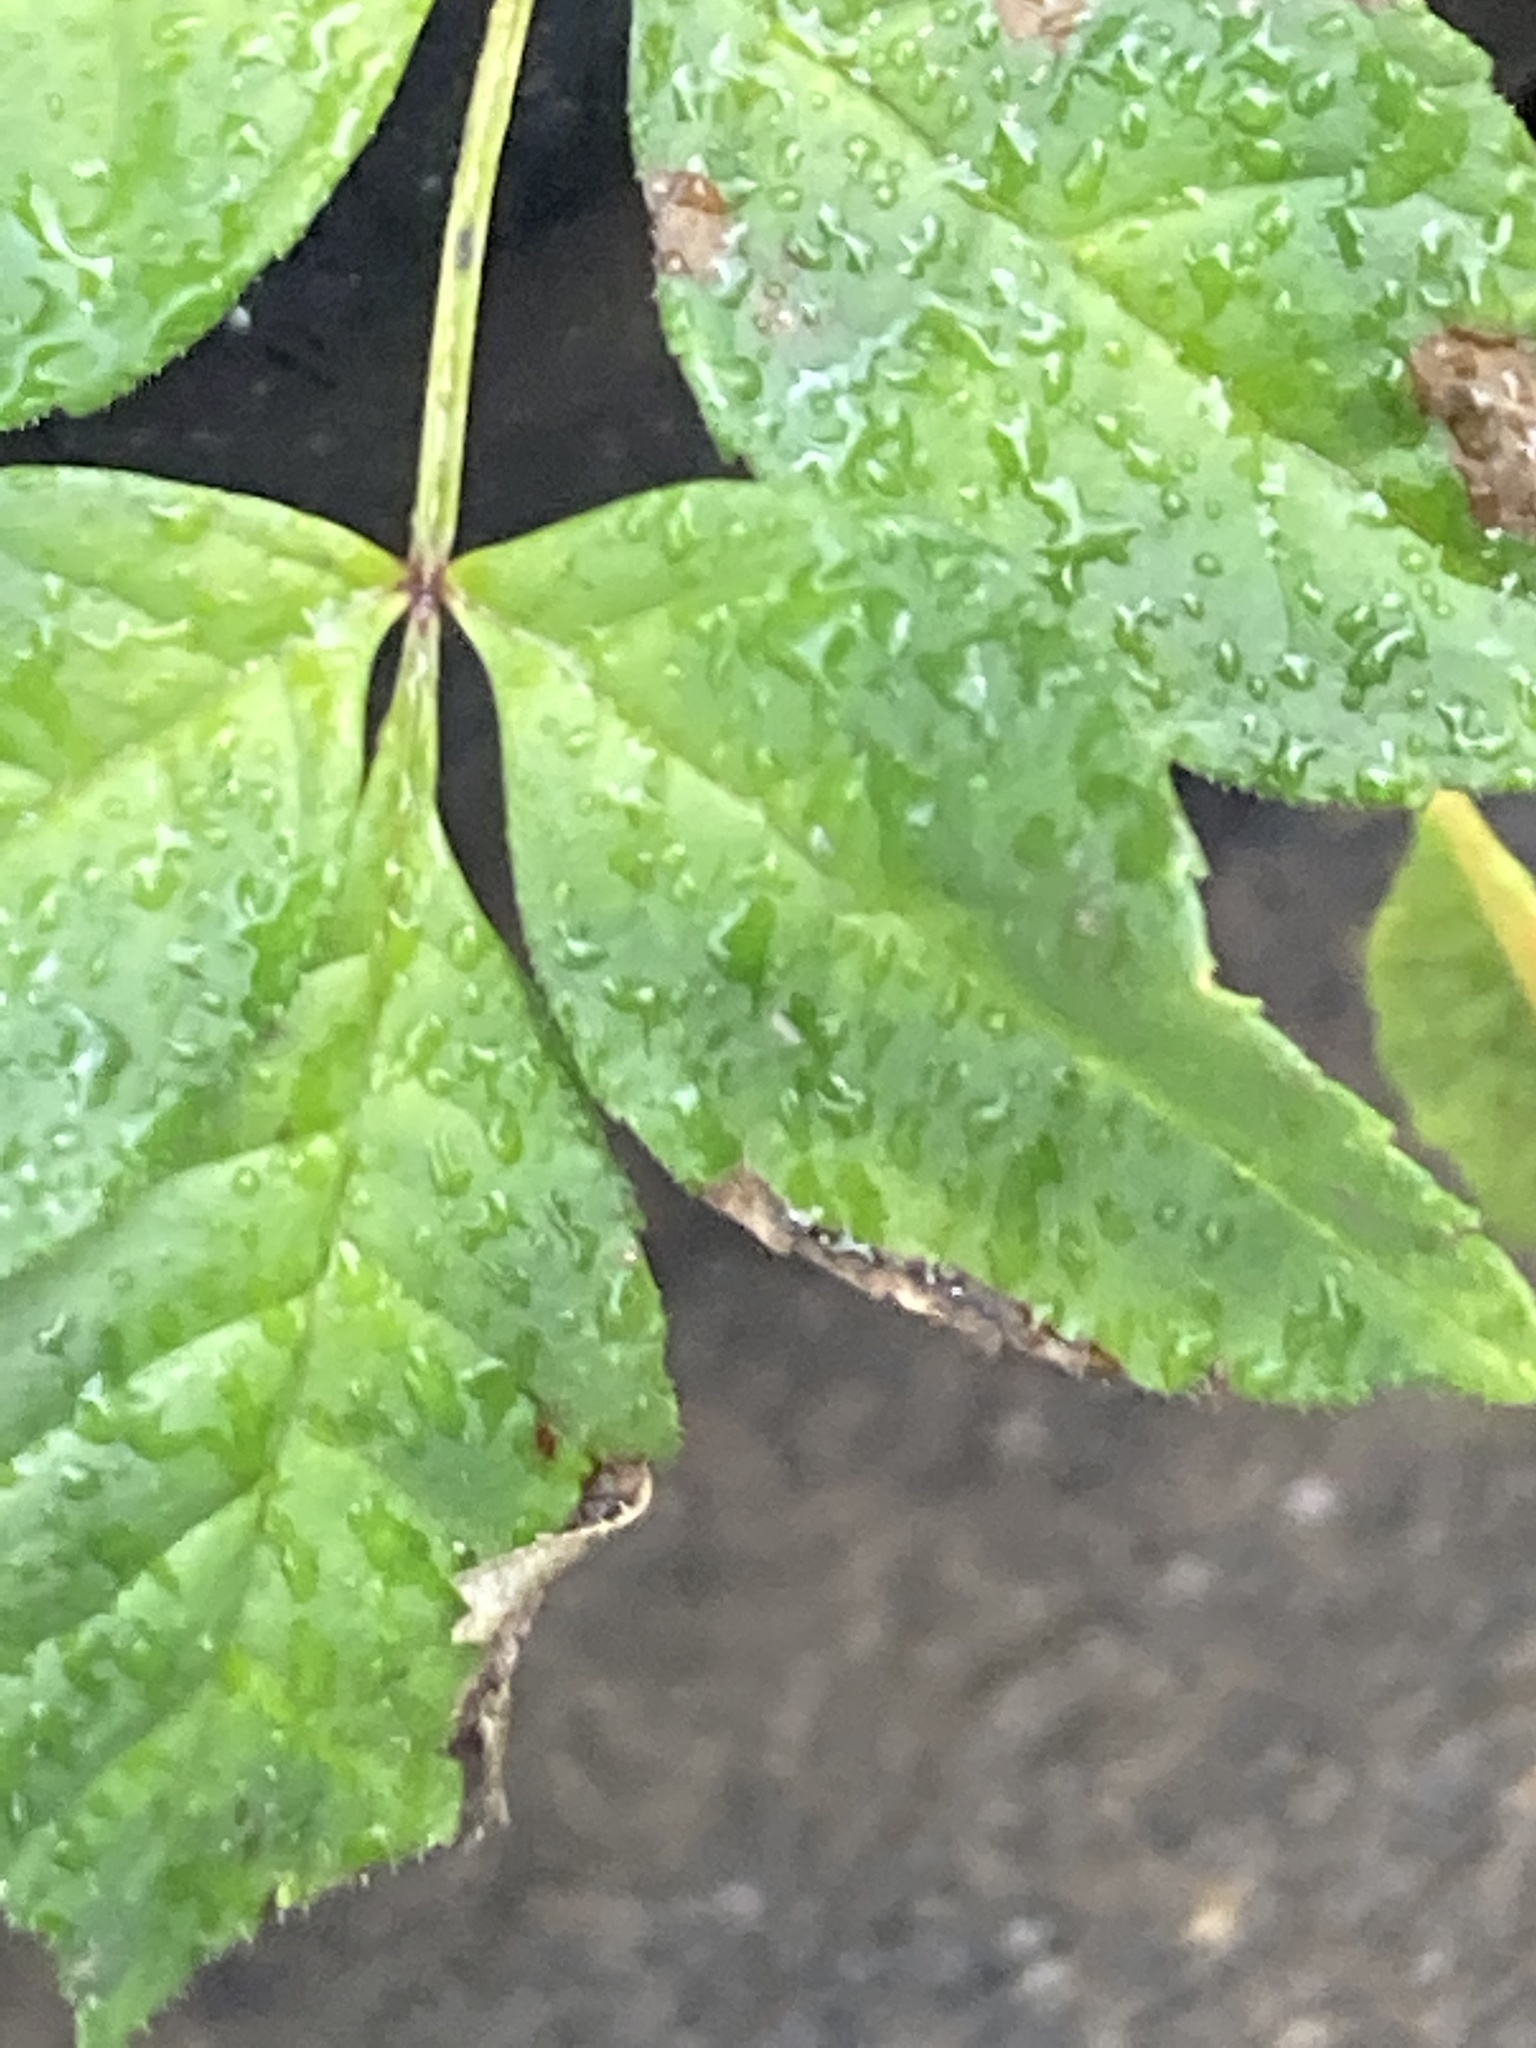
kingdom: Plantae
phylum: Tracheophyta
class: Magnoliopsida
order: Lamiales
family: Oleaceae
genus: Fraxinus
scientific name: Fraxinus excelsior
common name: European ash
